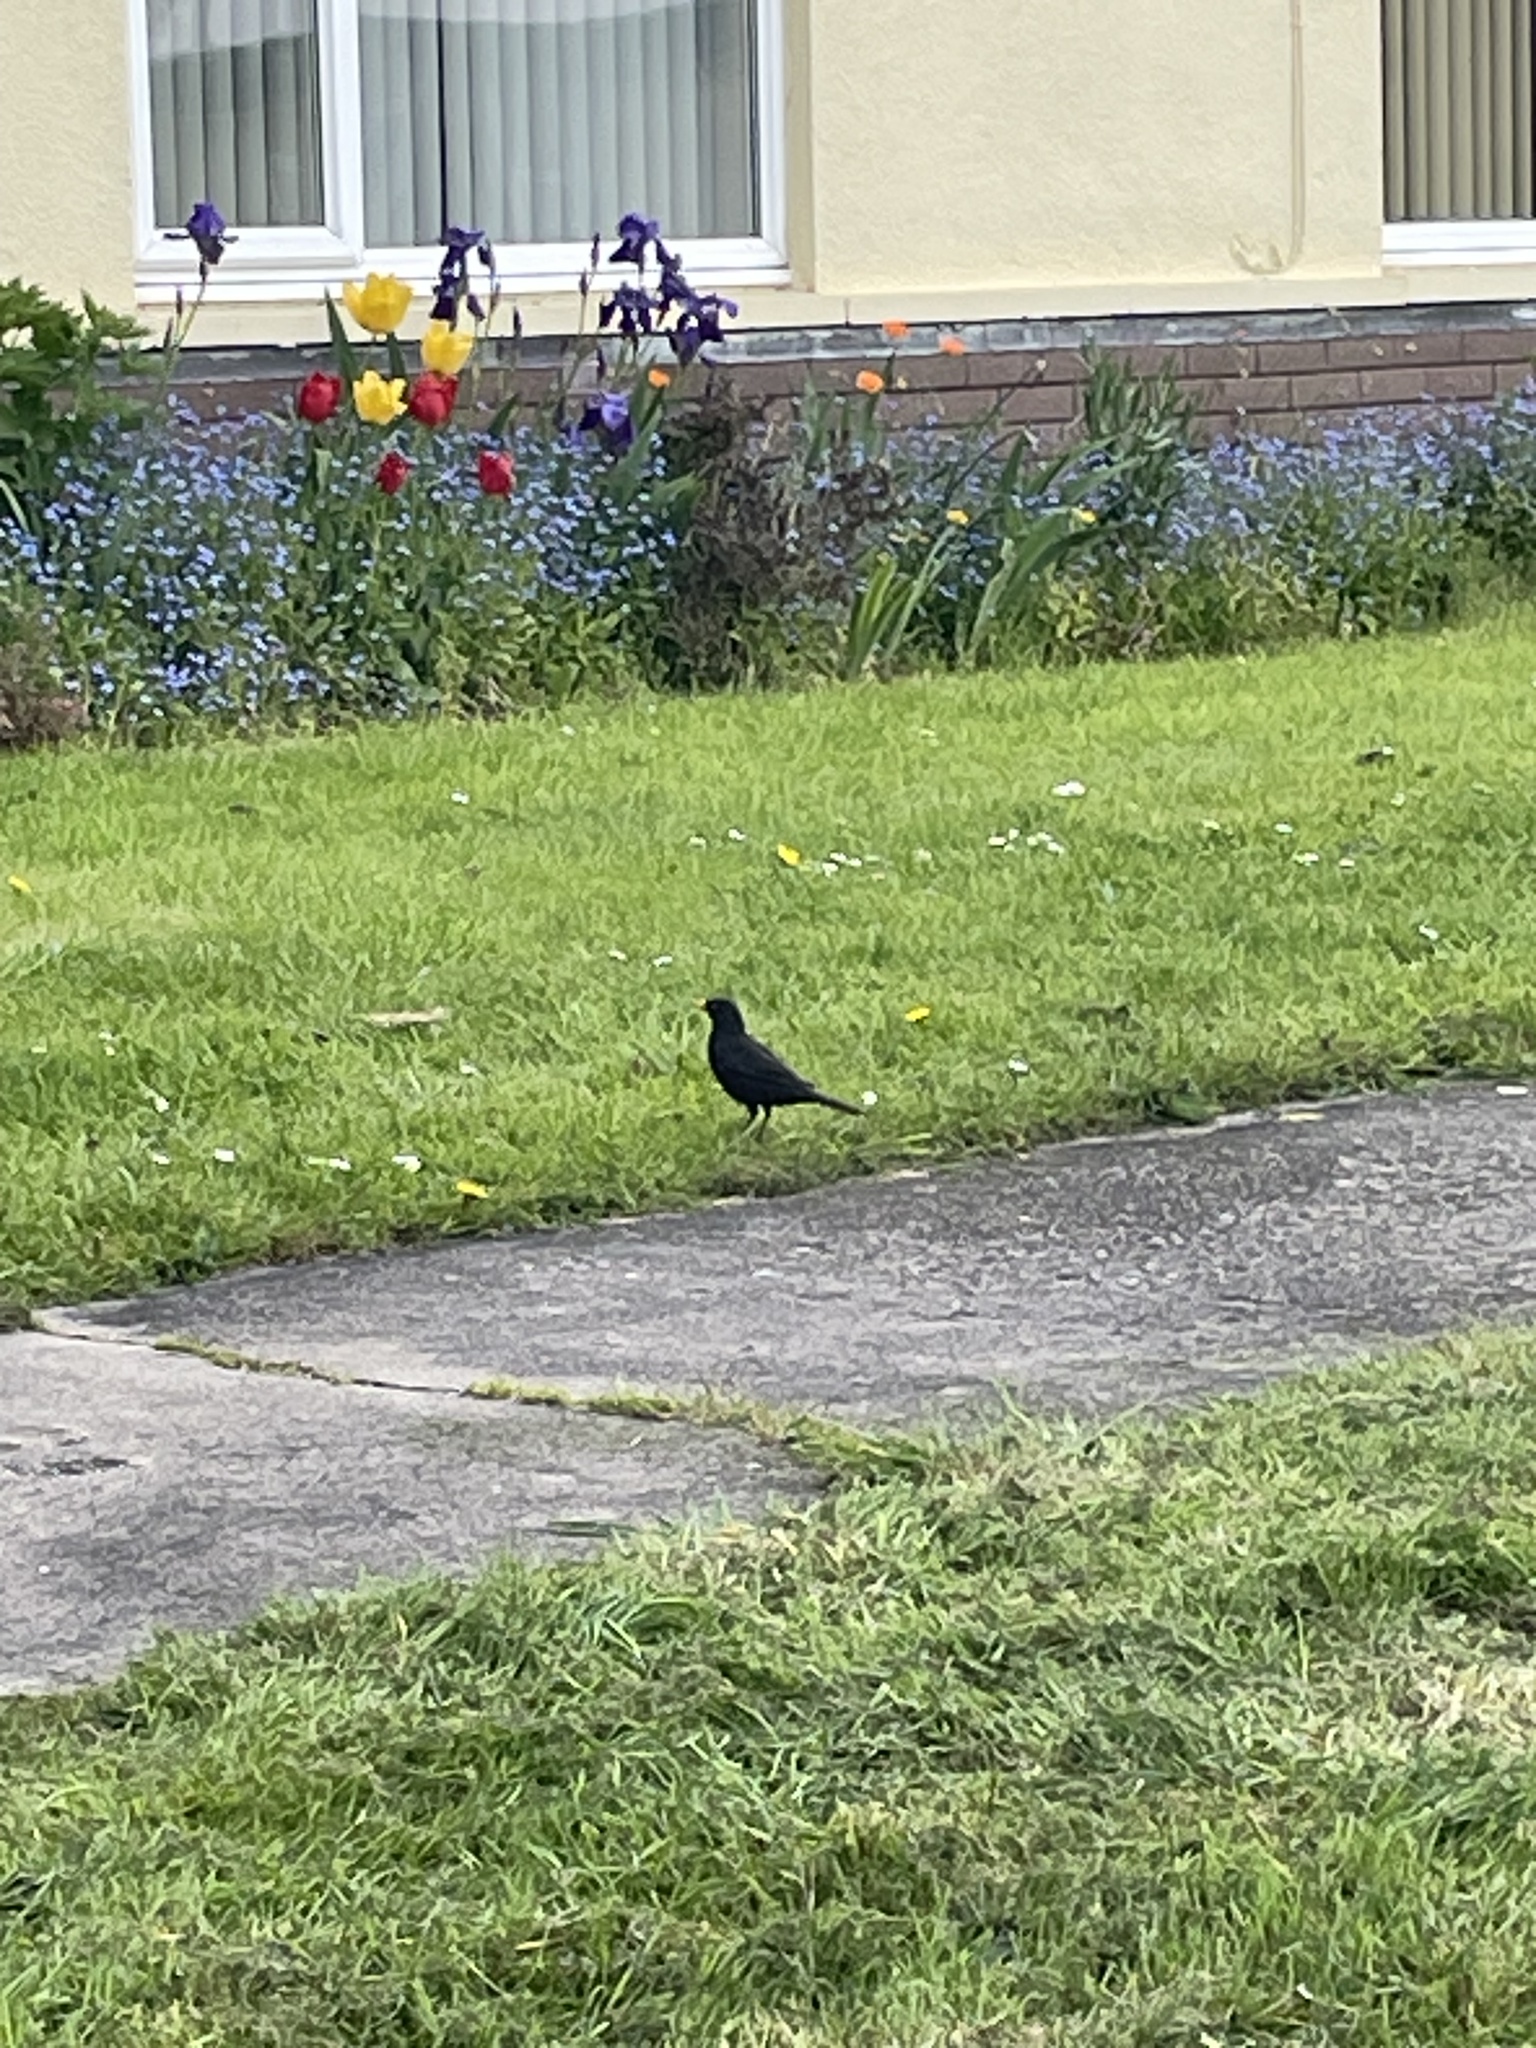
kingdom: Animalia
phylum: Chordata
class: Aves
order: Passeriformes
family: Turdidae
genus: Turdus
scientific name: Turdus merula
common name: Common blackbird
